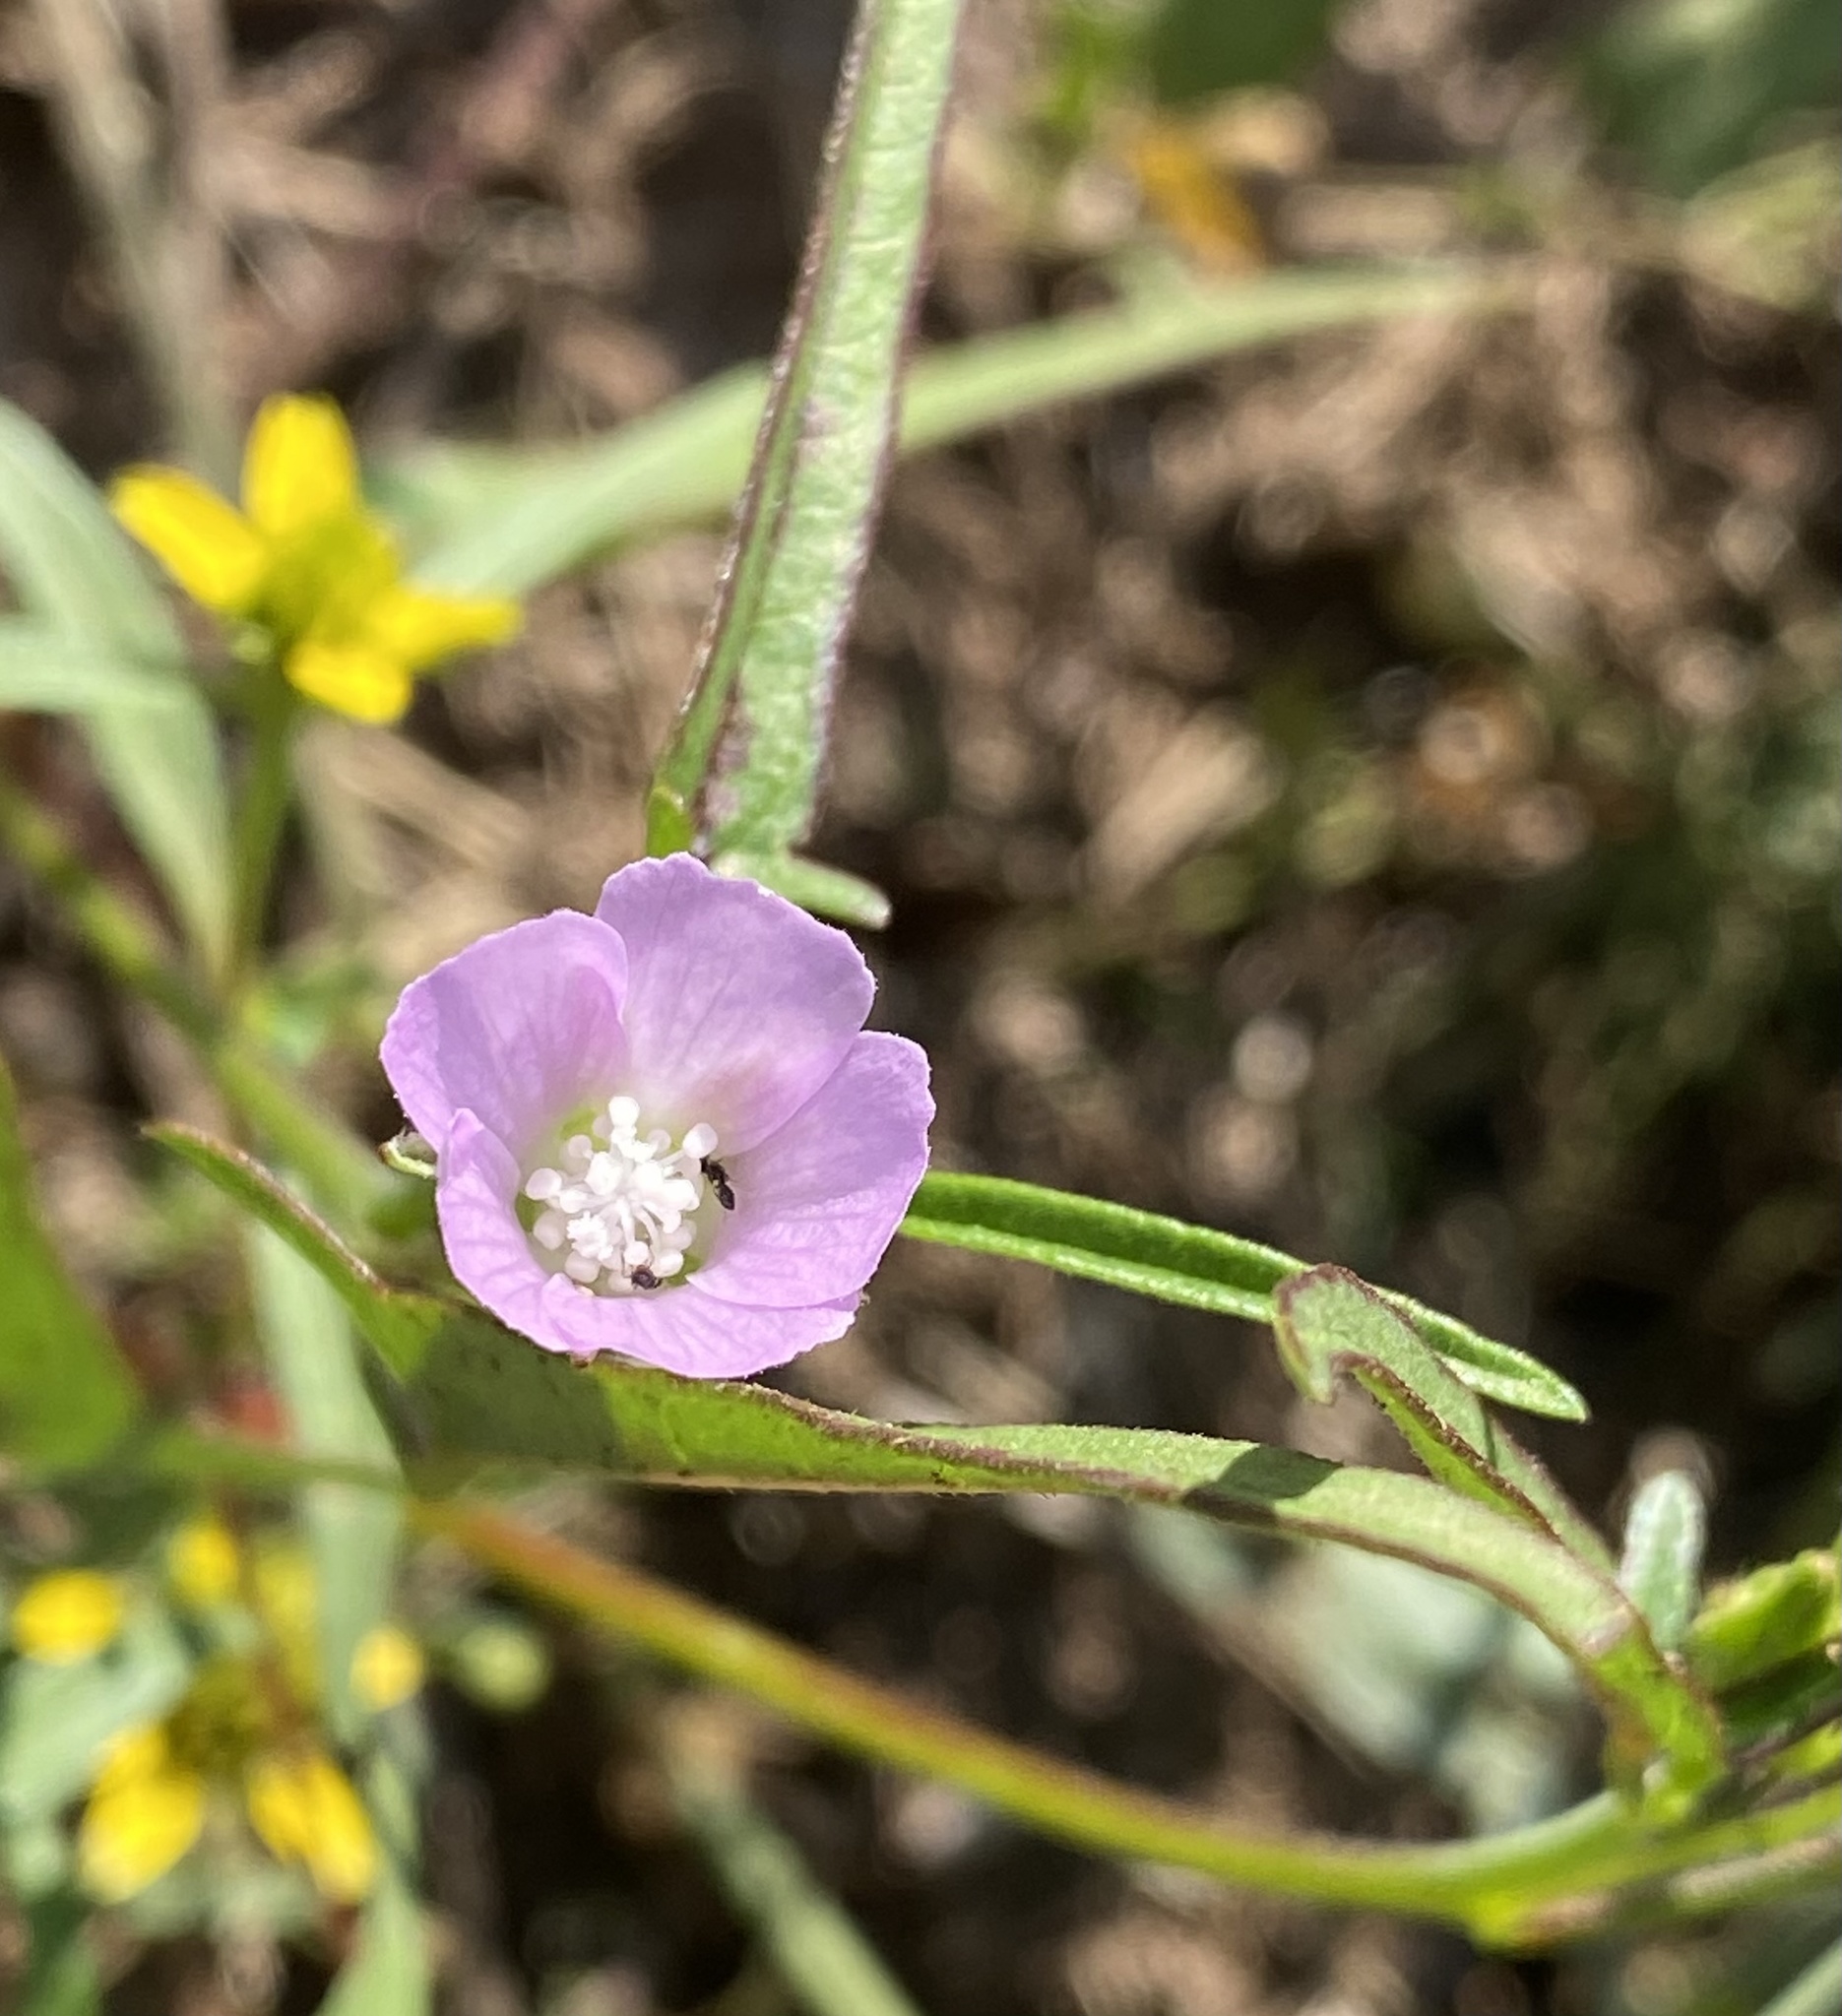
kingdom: Plantae
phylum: Tracheophyta
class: Magnoliopsida
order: Malvales
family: Malvaceae
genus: Anoda
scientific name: Anoda cristata
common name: Spurred anoda
